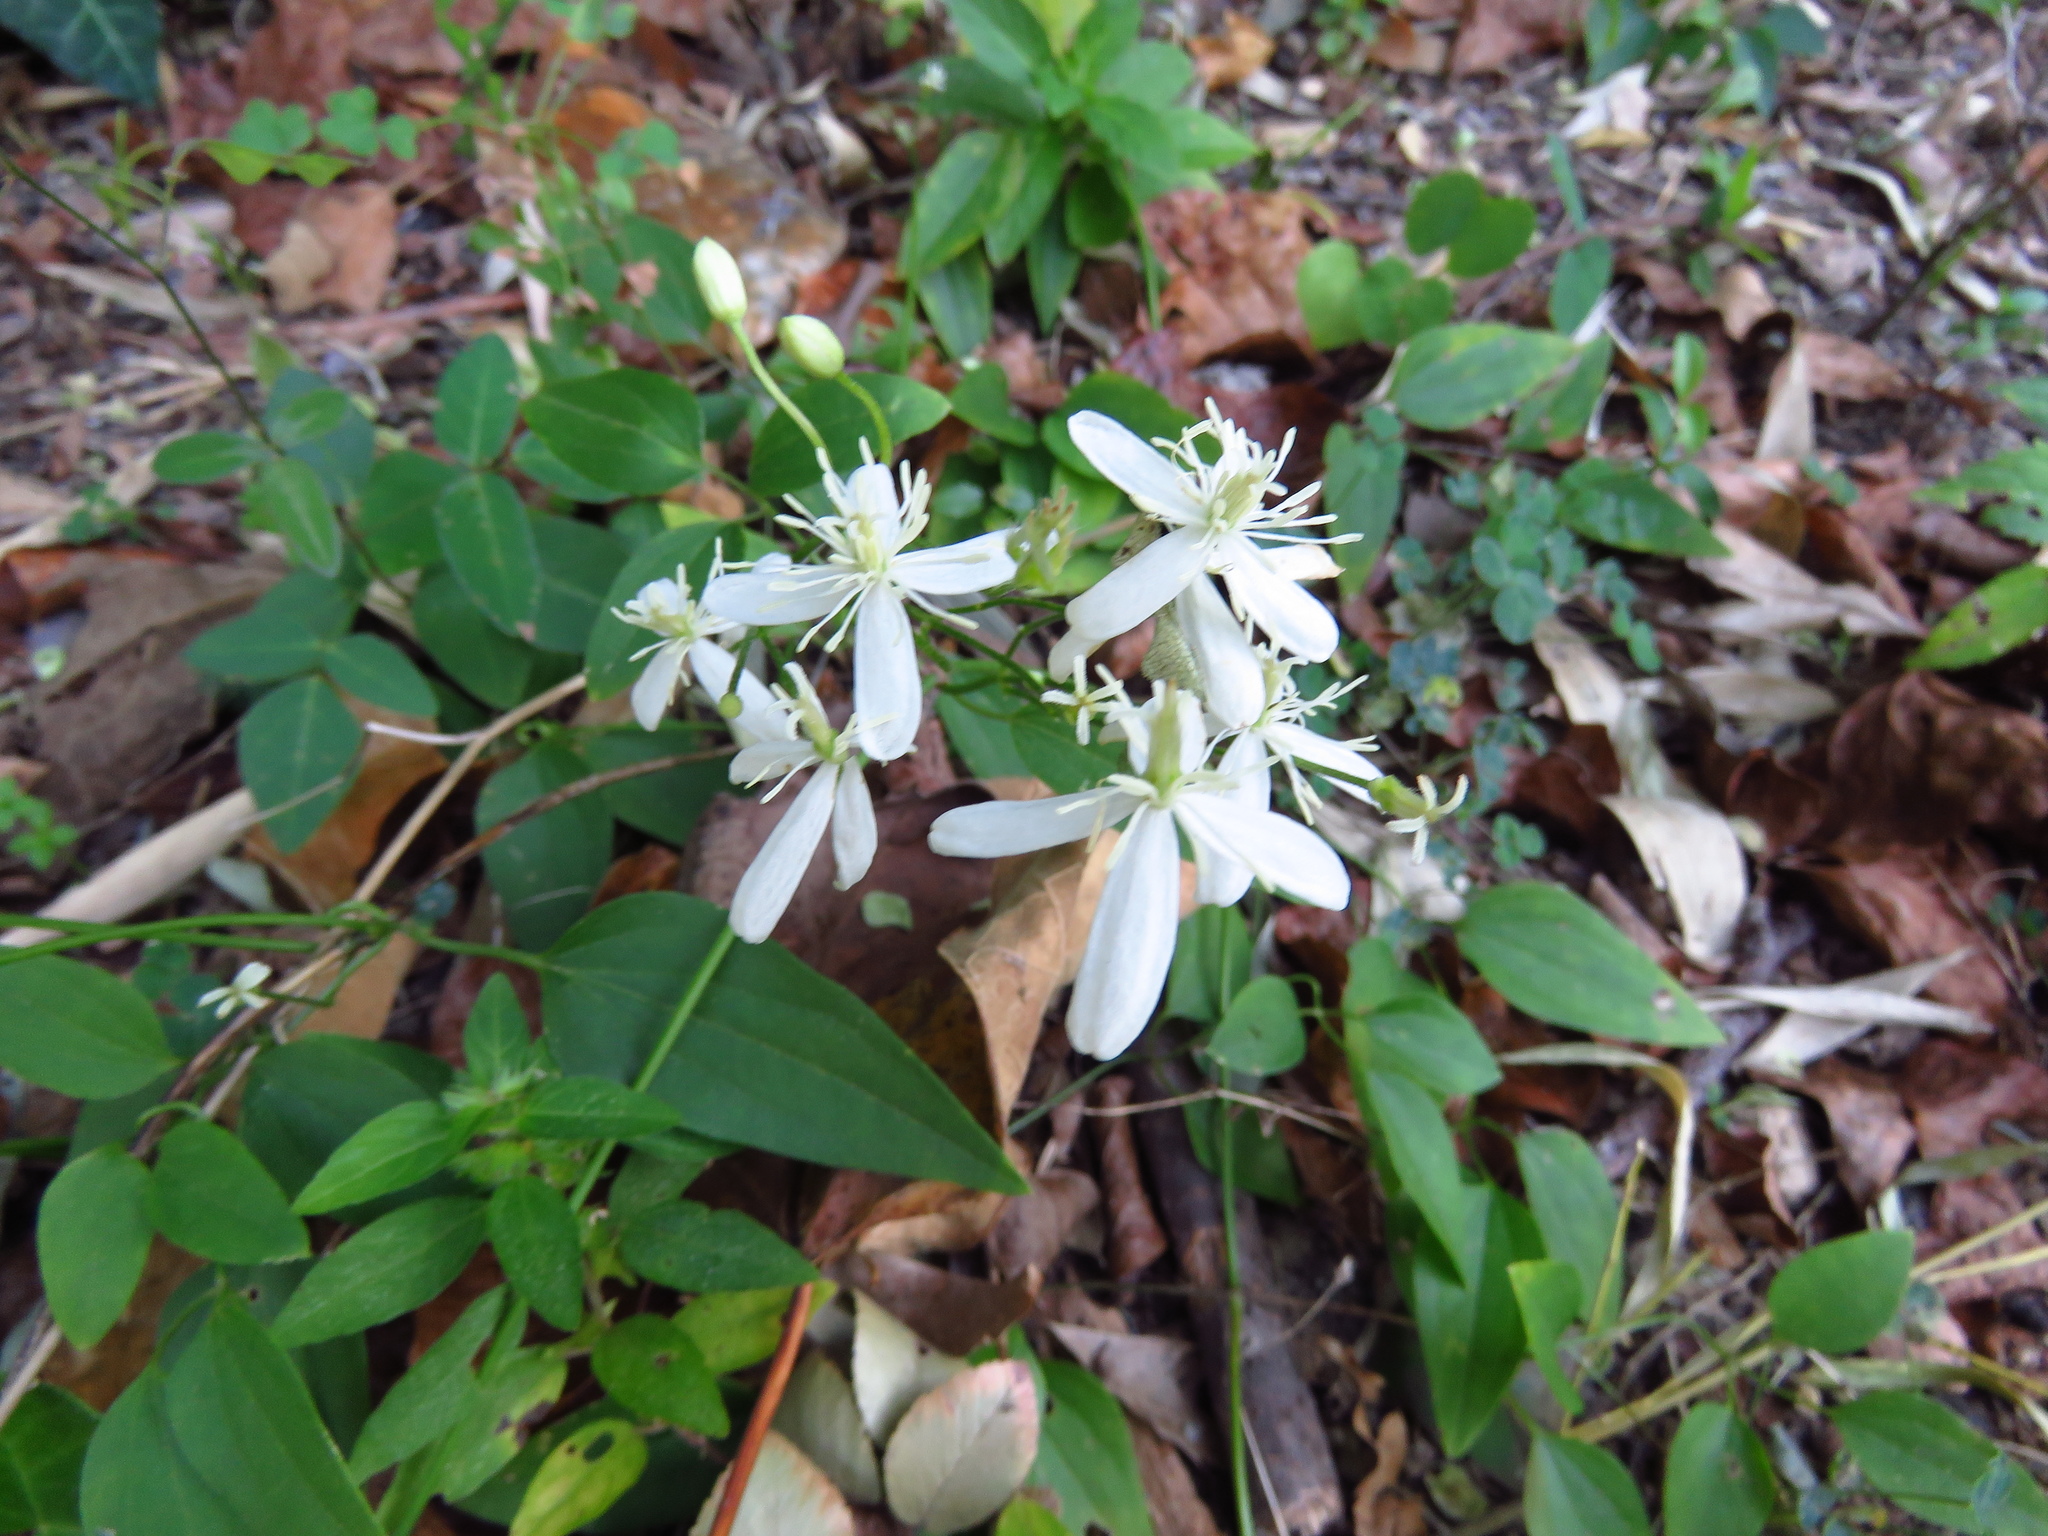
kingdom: Plantae
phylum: Tracheophyta
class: Magnoliopsida
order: Ranunculales
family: Ranunculaceae
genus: Clematis
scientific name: Clematis terniflora
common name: Sweet autumn clematis
